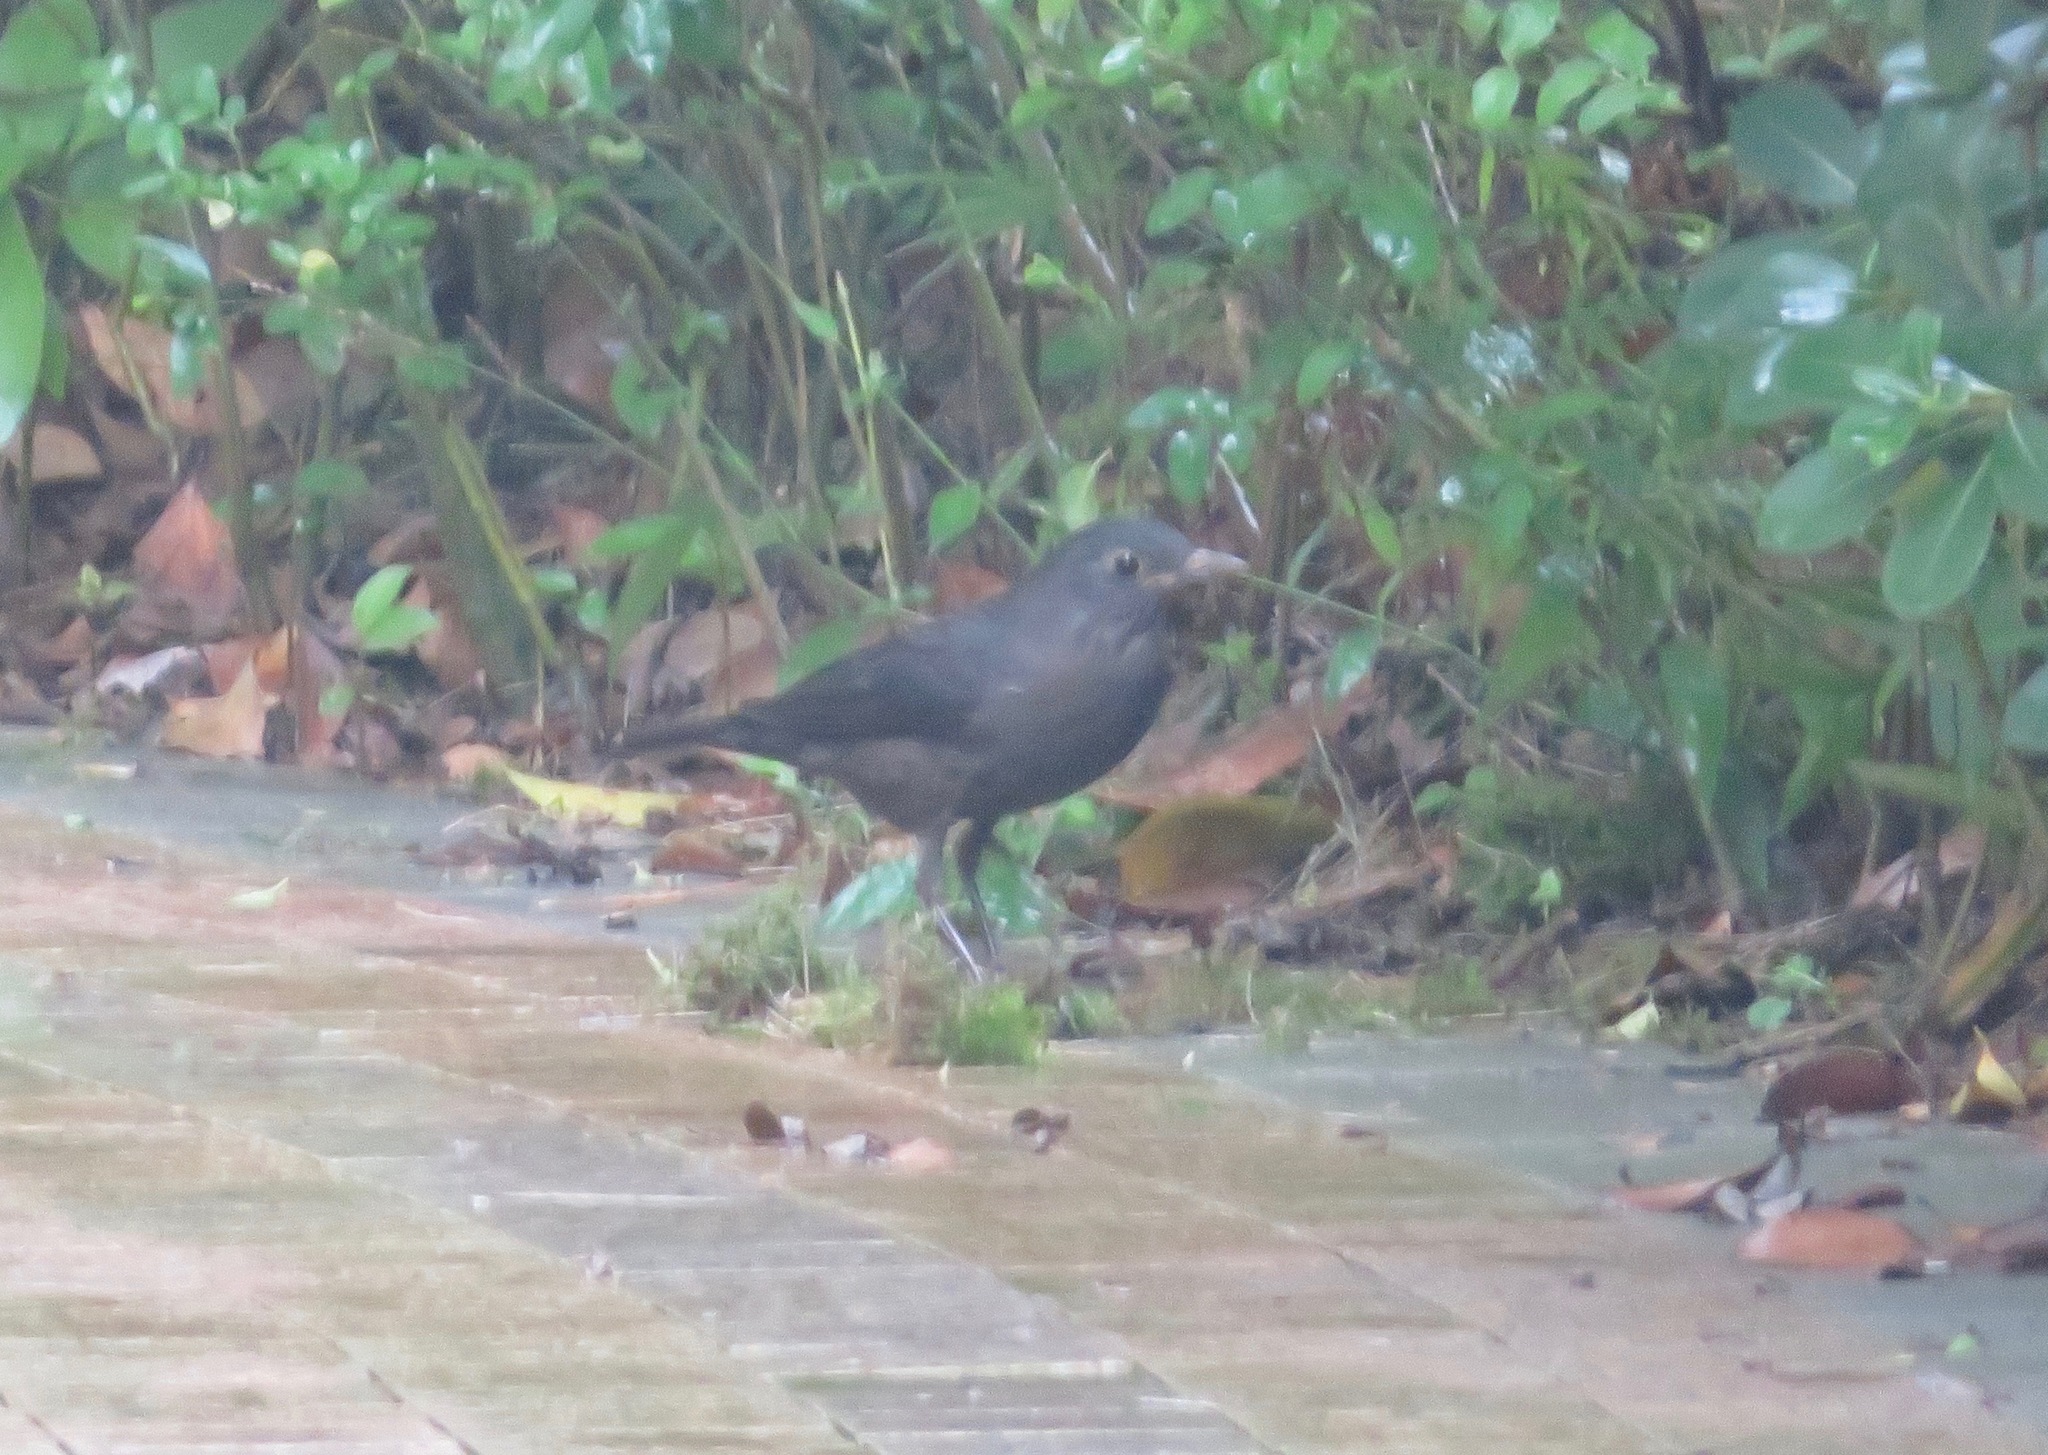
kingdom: Animalia
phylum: Chordata
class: Aves
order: Passeriformes
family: Turdidae
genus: Turdus
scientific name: Turdus mandarinus
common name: Chinese blackbird
